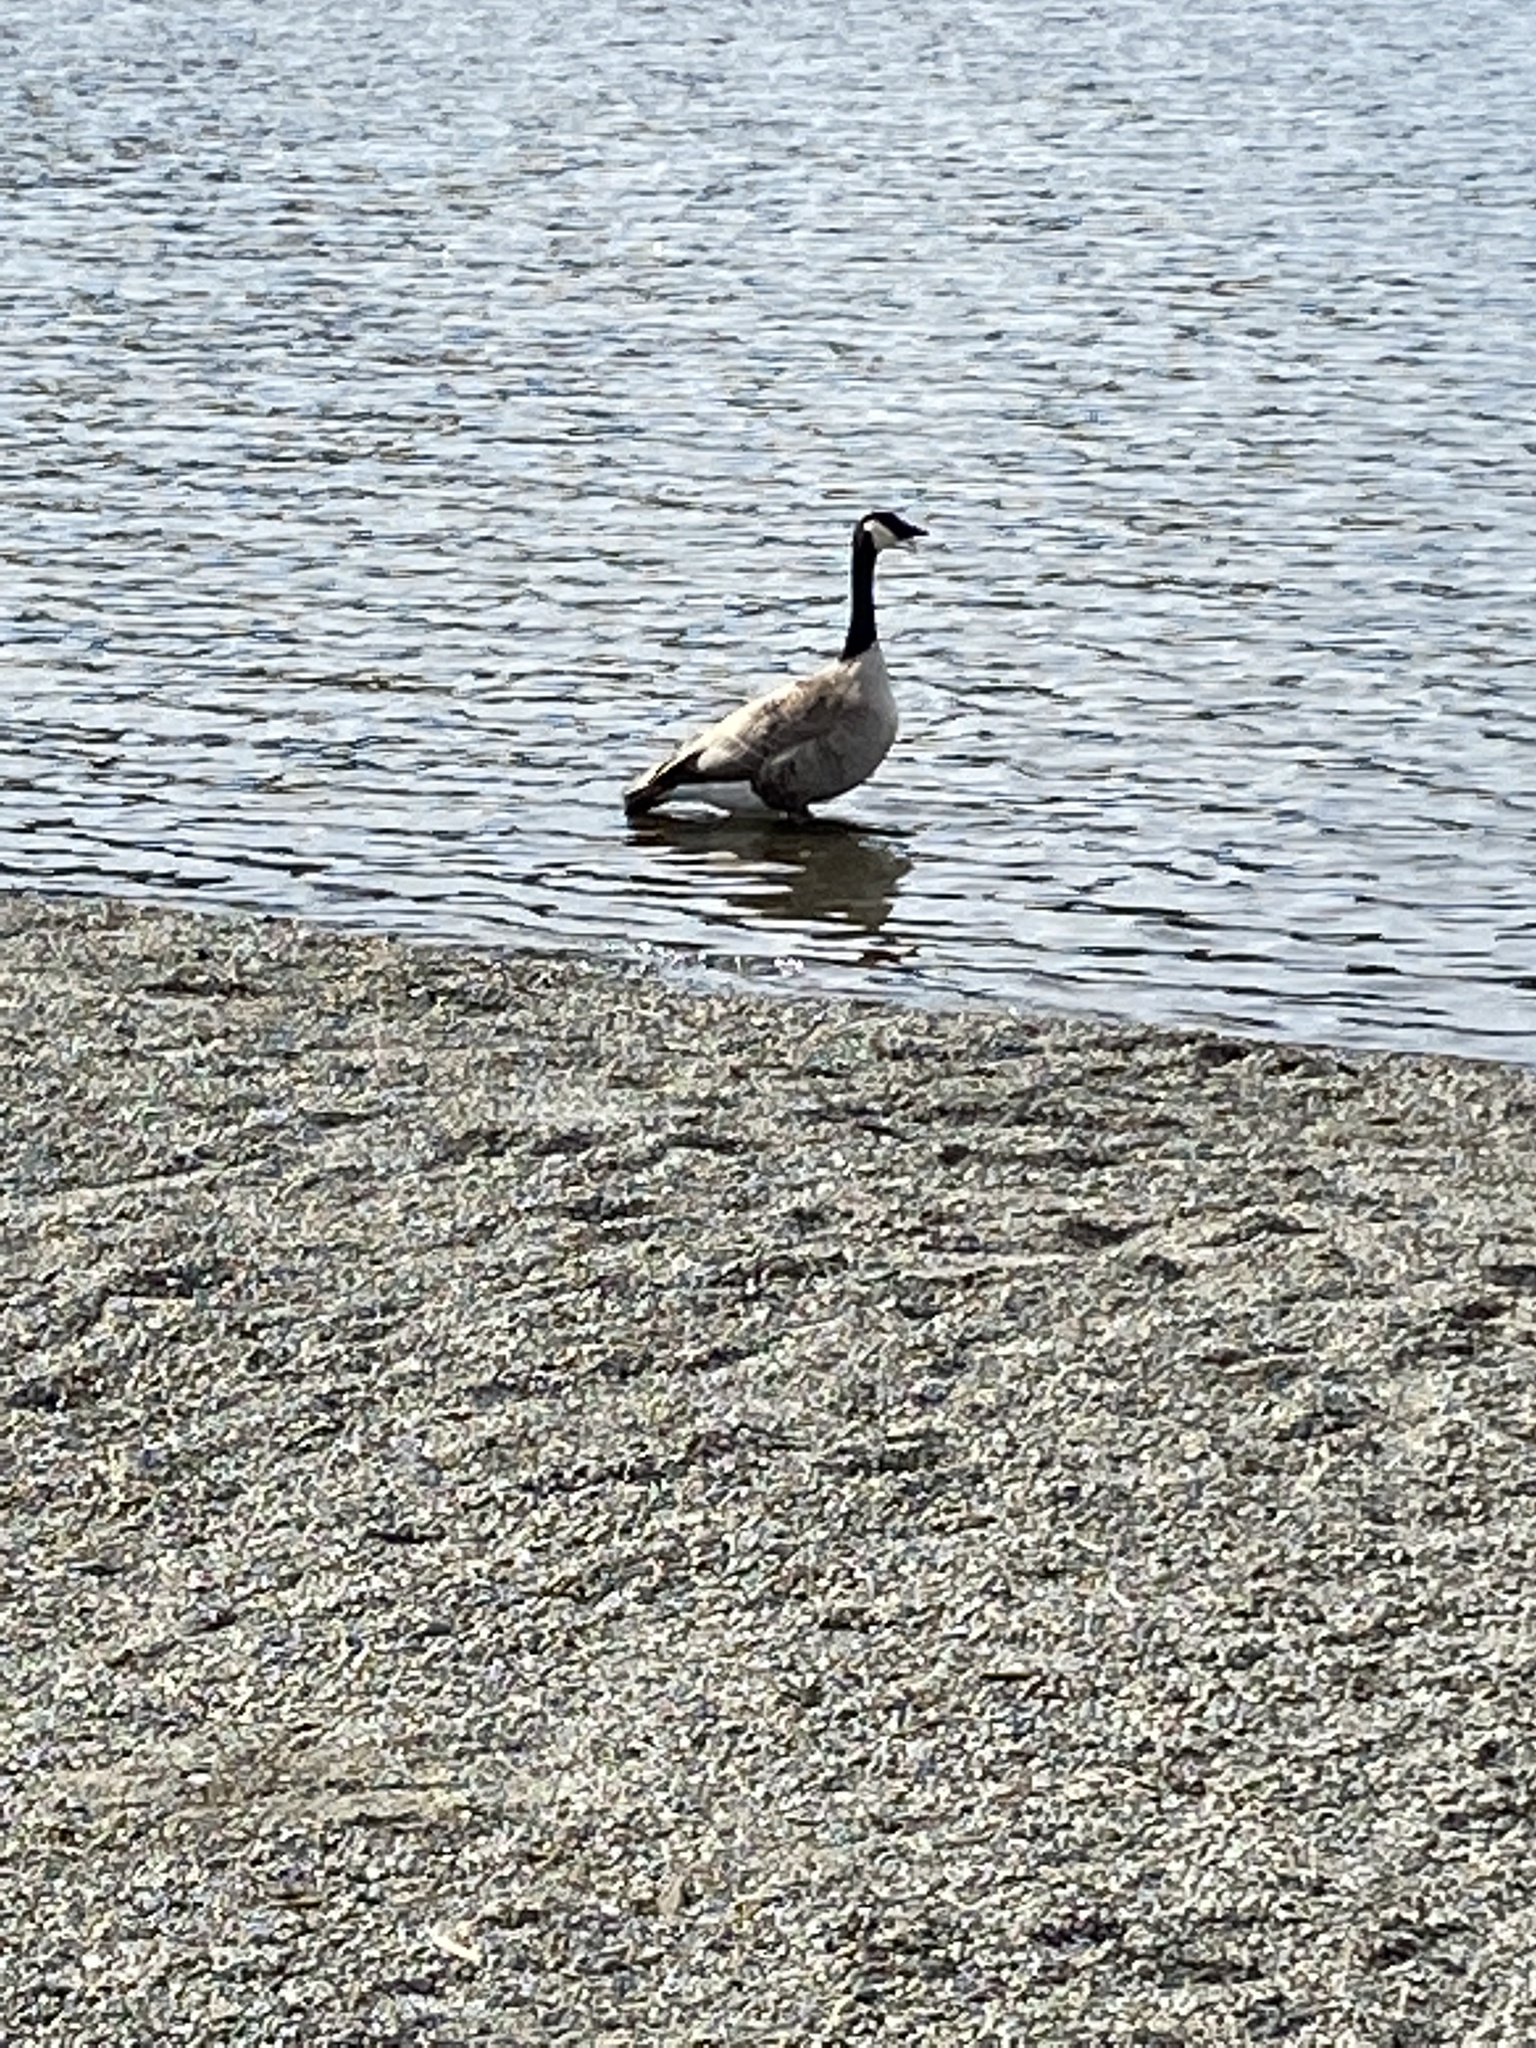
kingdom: Animalia
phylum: Chordata
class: Aves
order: Anseriformes
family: Anatidae
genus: Branta
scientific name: Branta canadensis
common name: Canada goose
